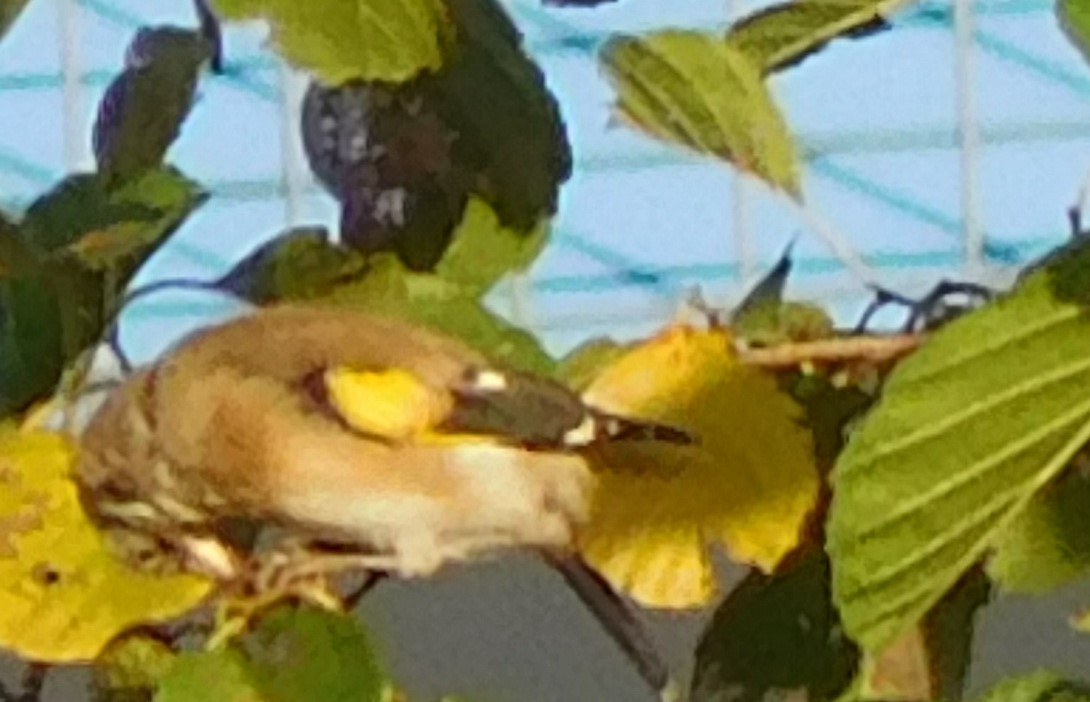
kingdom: Animalia
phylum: Chordata
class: Aves
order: Passeriformes
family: Fringillidae
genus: Carduelis
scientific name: Carduelis carduelis
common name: European goldfinch
